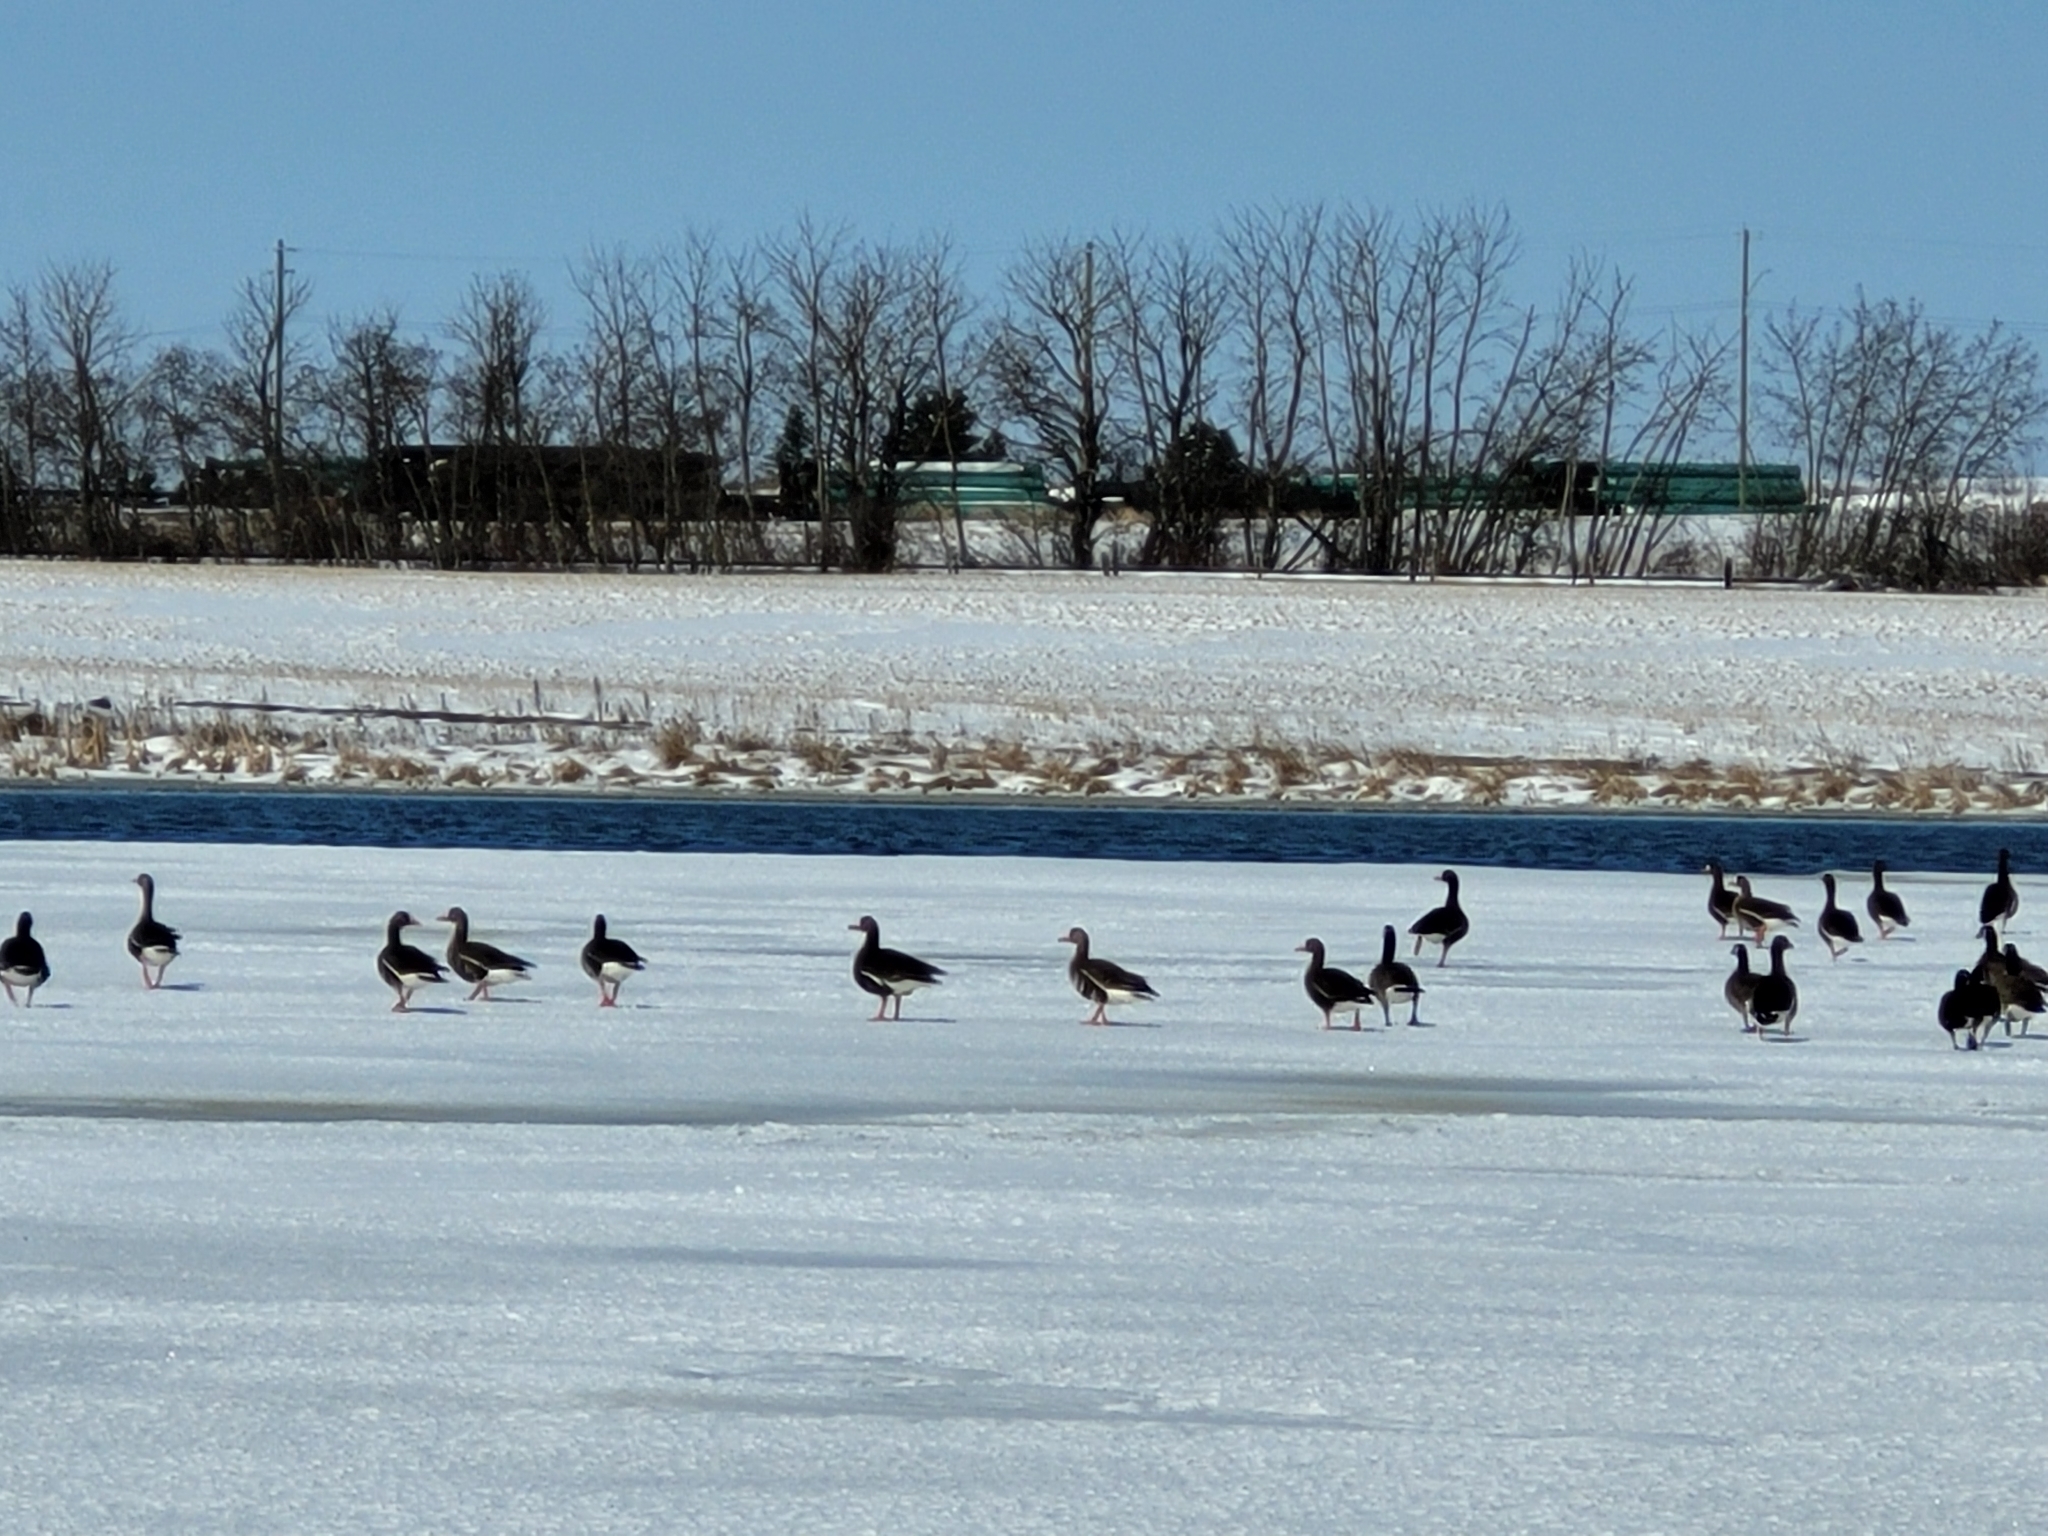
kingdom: Animalia
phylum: Chordata
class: Aves
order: Anseriformes
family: Anatidae
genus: Anser
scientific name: Anser albifrons
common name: Greater white-fronted goose
